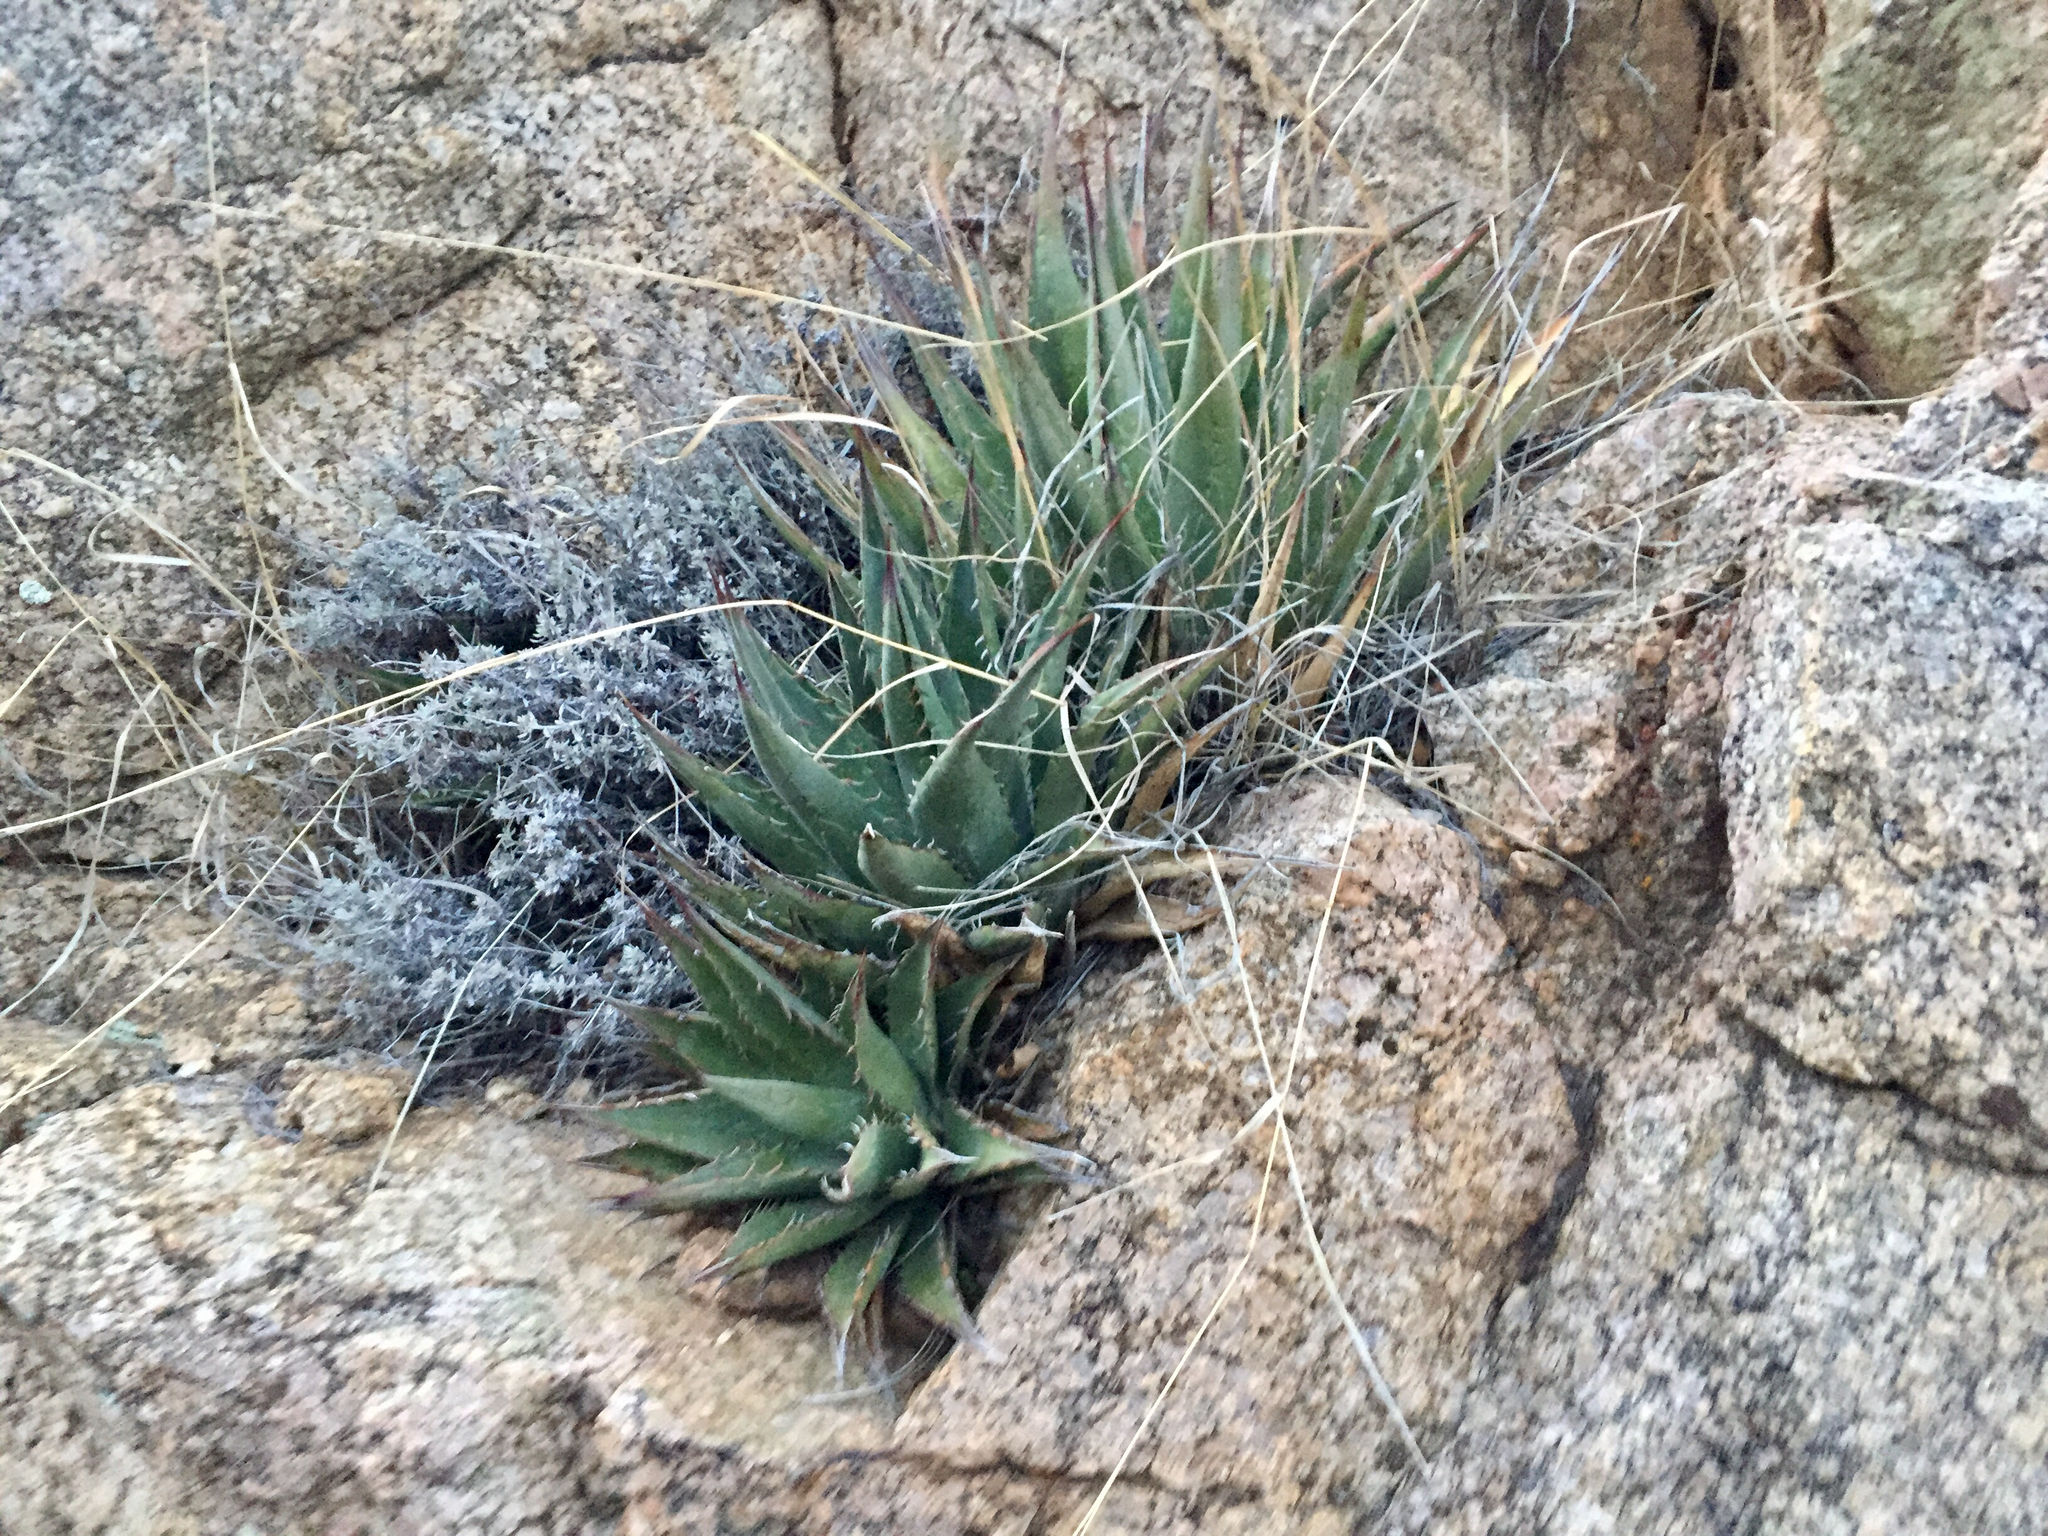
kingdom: Plantae
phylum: Tracheophyta
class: Liliopsida
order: Asparagales
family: Asparagaceae
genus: Agave
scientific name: Agave mckelveyana
